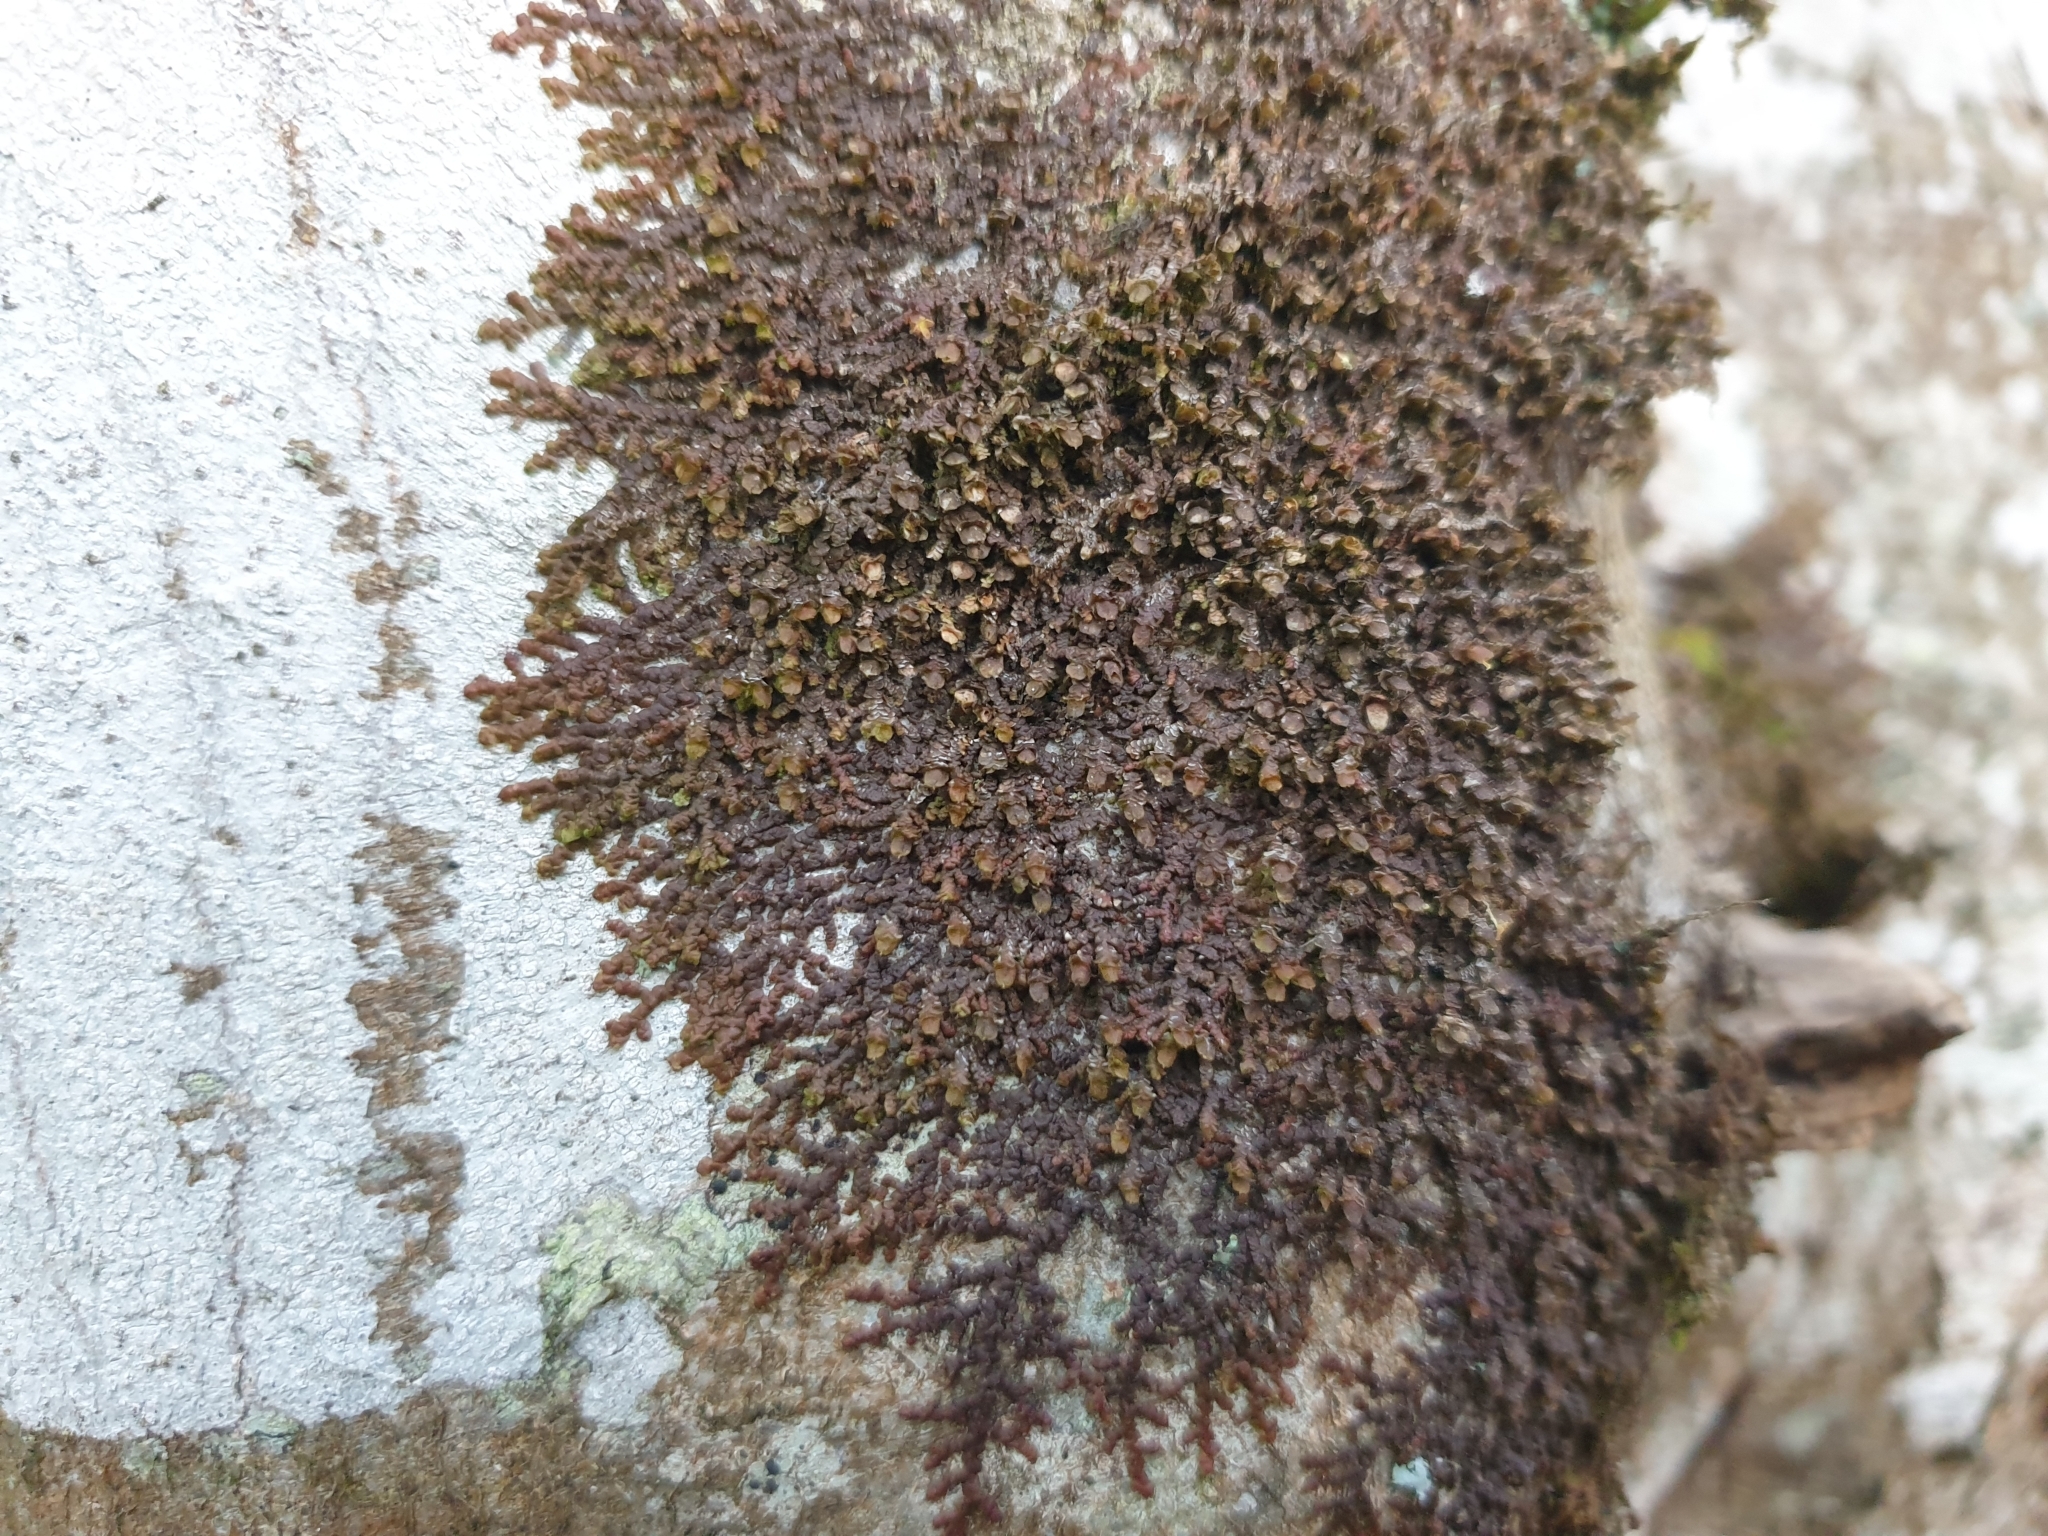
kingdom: Plantae
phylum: Marchantiophyta
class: Jungermanniopsida
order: Porellales
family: Frullaniaceae
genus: Frullania
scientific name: Frullania dilatata
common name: Dilated scalewort
